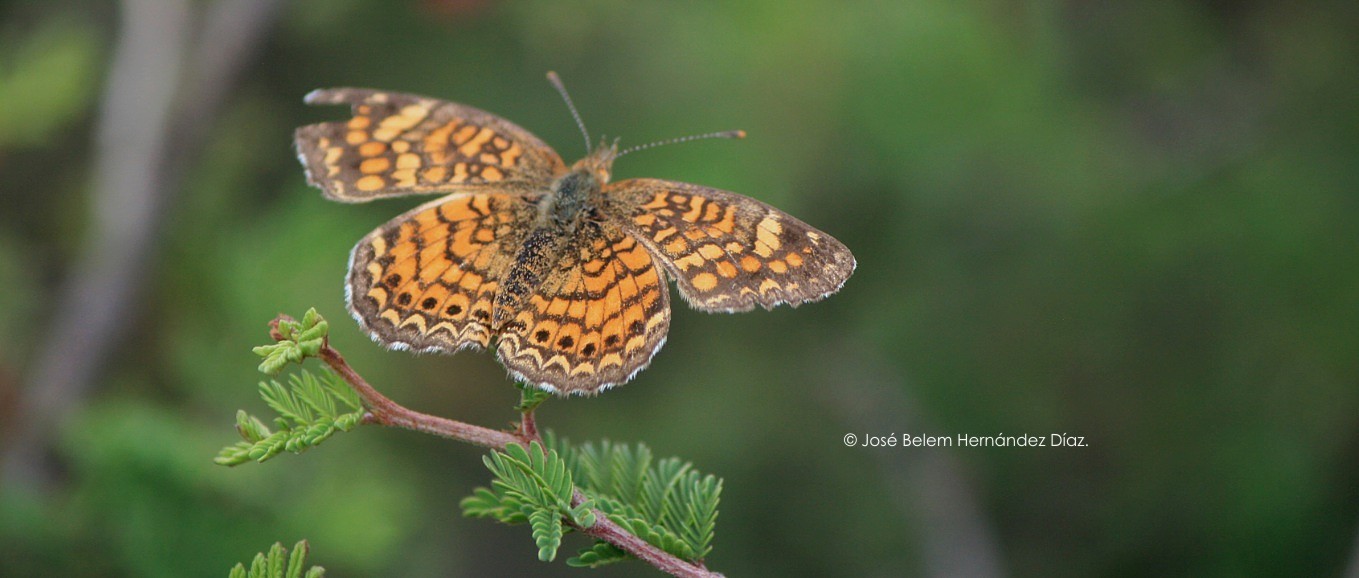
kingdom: Animalia
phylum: Arthropoda
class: Insecta
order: Lepidoptera
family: Nymphalidae
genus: Phyciodes
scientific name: Phyciodes vesta
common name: Vesta crescent
